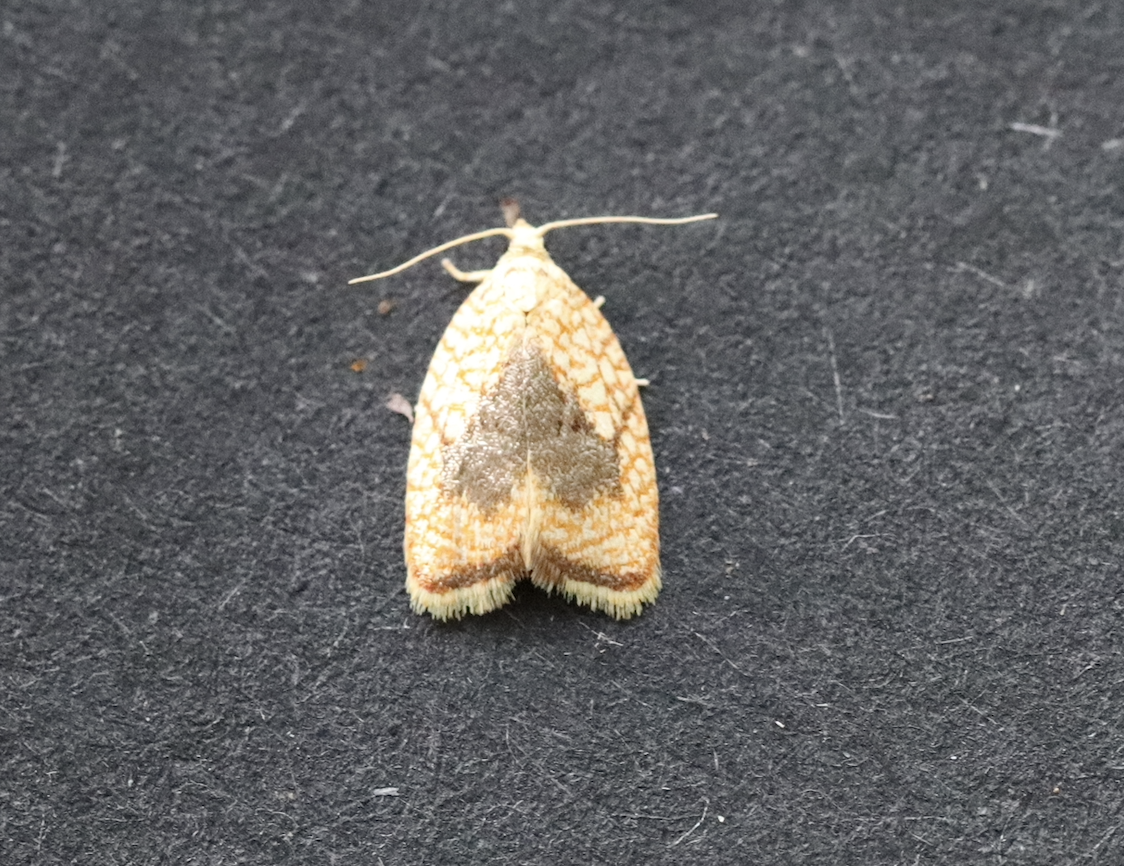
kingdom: Animalia
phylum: Arthropoda
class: Insecta
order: Lepidoptera
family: Tortricidae
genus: Acleris
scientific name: Acleris forsskaleana
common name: Maple button
